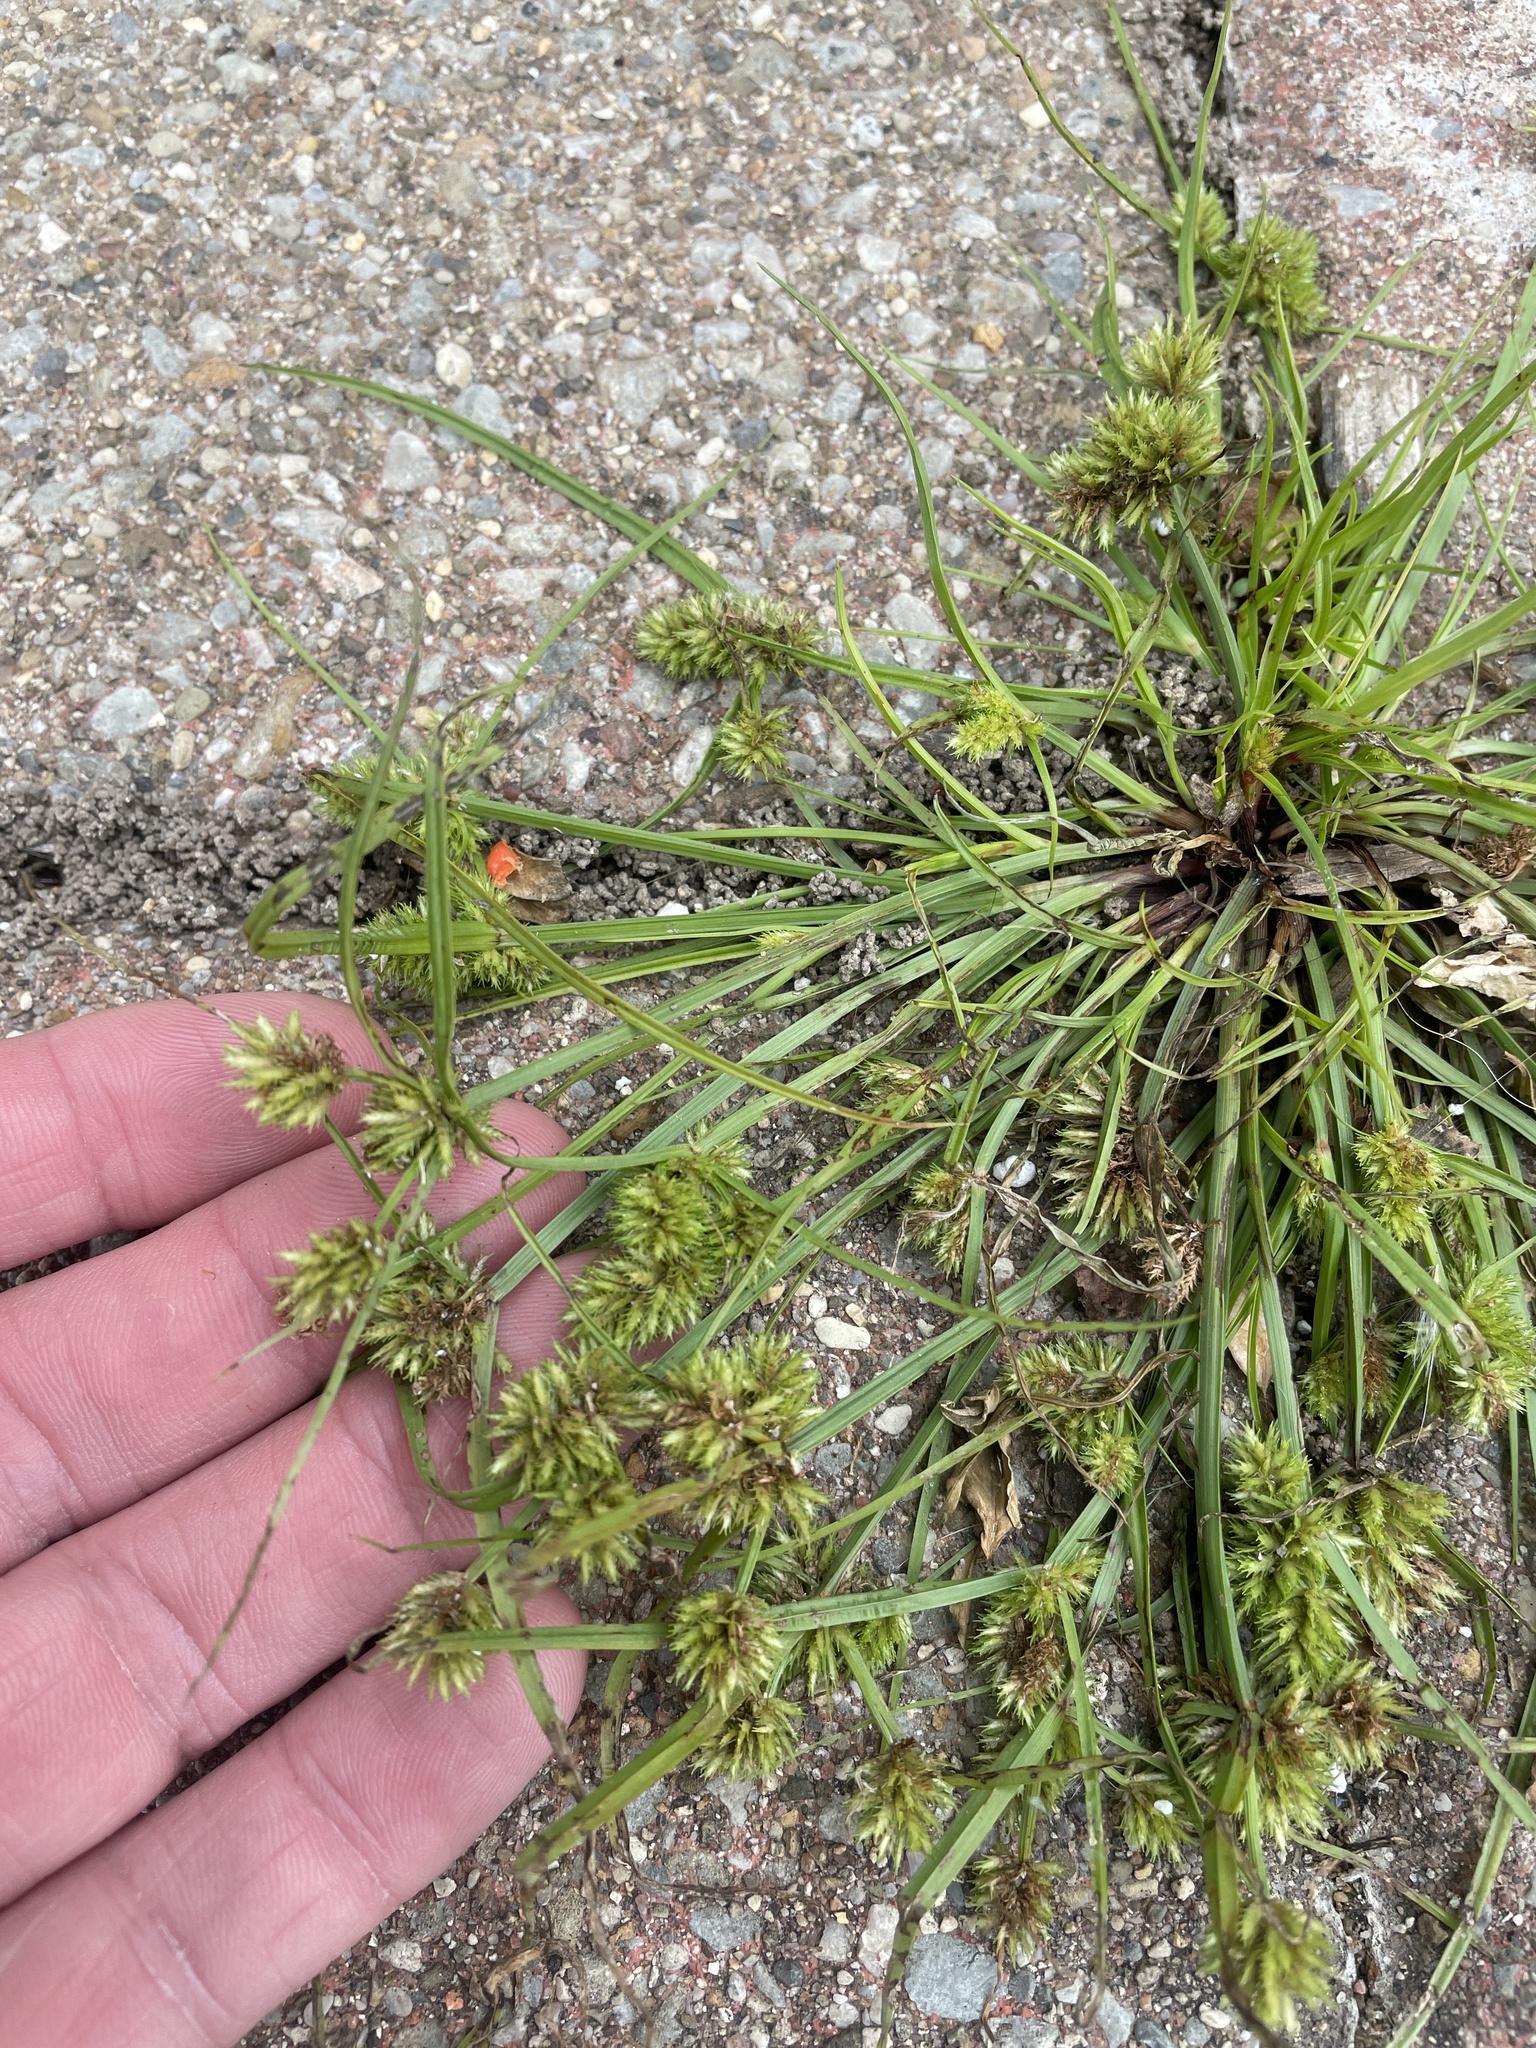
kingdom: Plantae
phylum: Tracheophyta
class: Liliopsida
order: Poales
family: Cyperaceae
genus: Cyperus
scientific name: Cyperus squarrosus
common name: Awned cyperus
